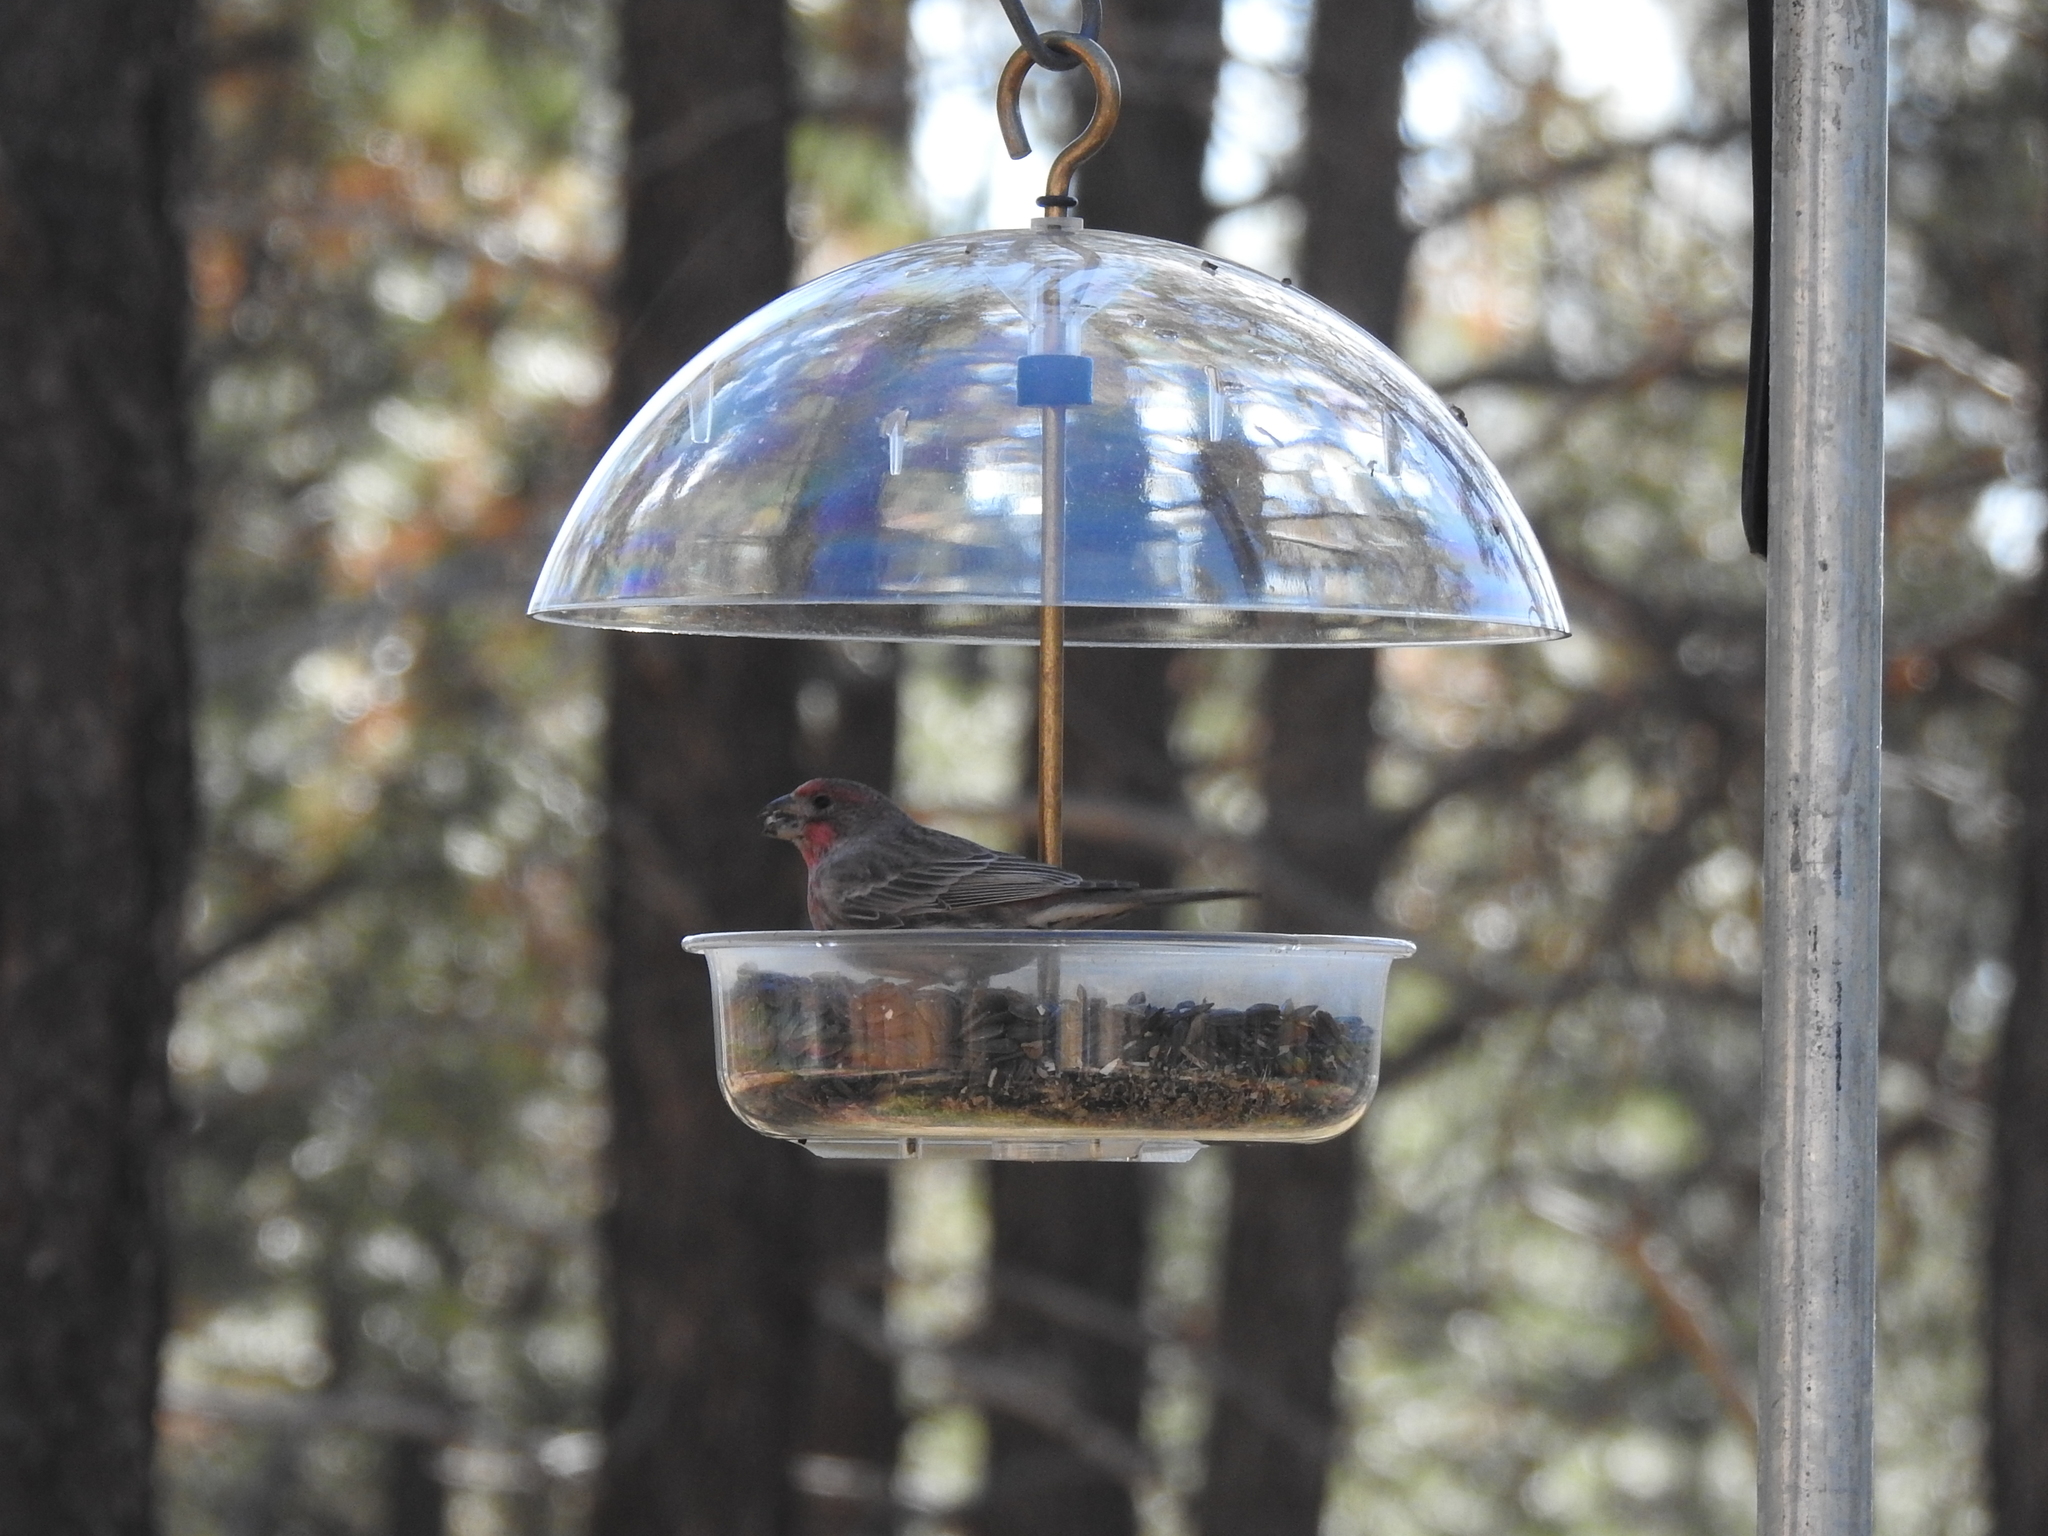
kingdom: Animalia
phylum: Chordata
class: Aves
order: Passeriformes
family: Fringillidae
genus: Haemorhous
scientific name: Haemorhous mexicanus
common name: House finch
